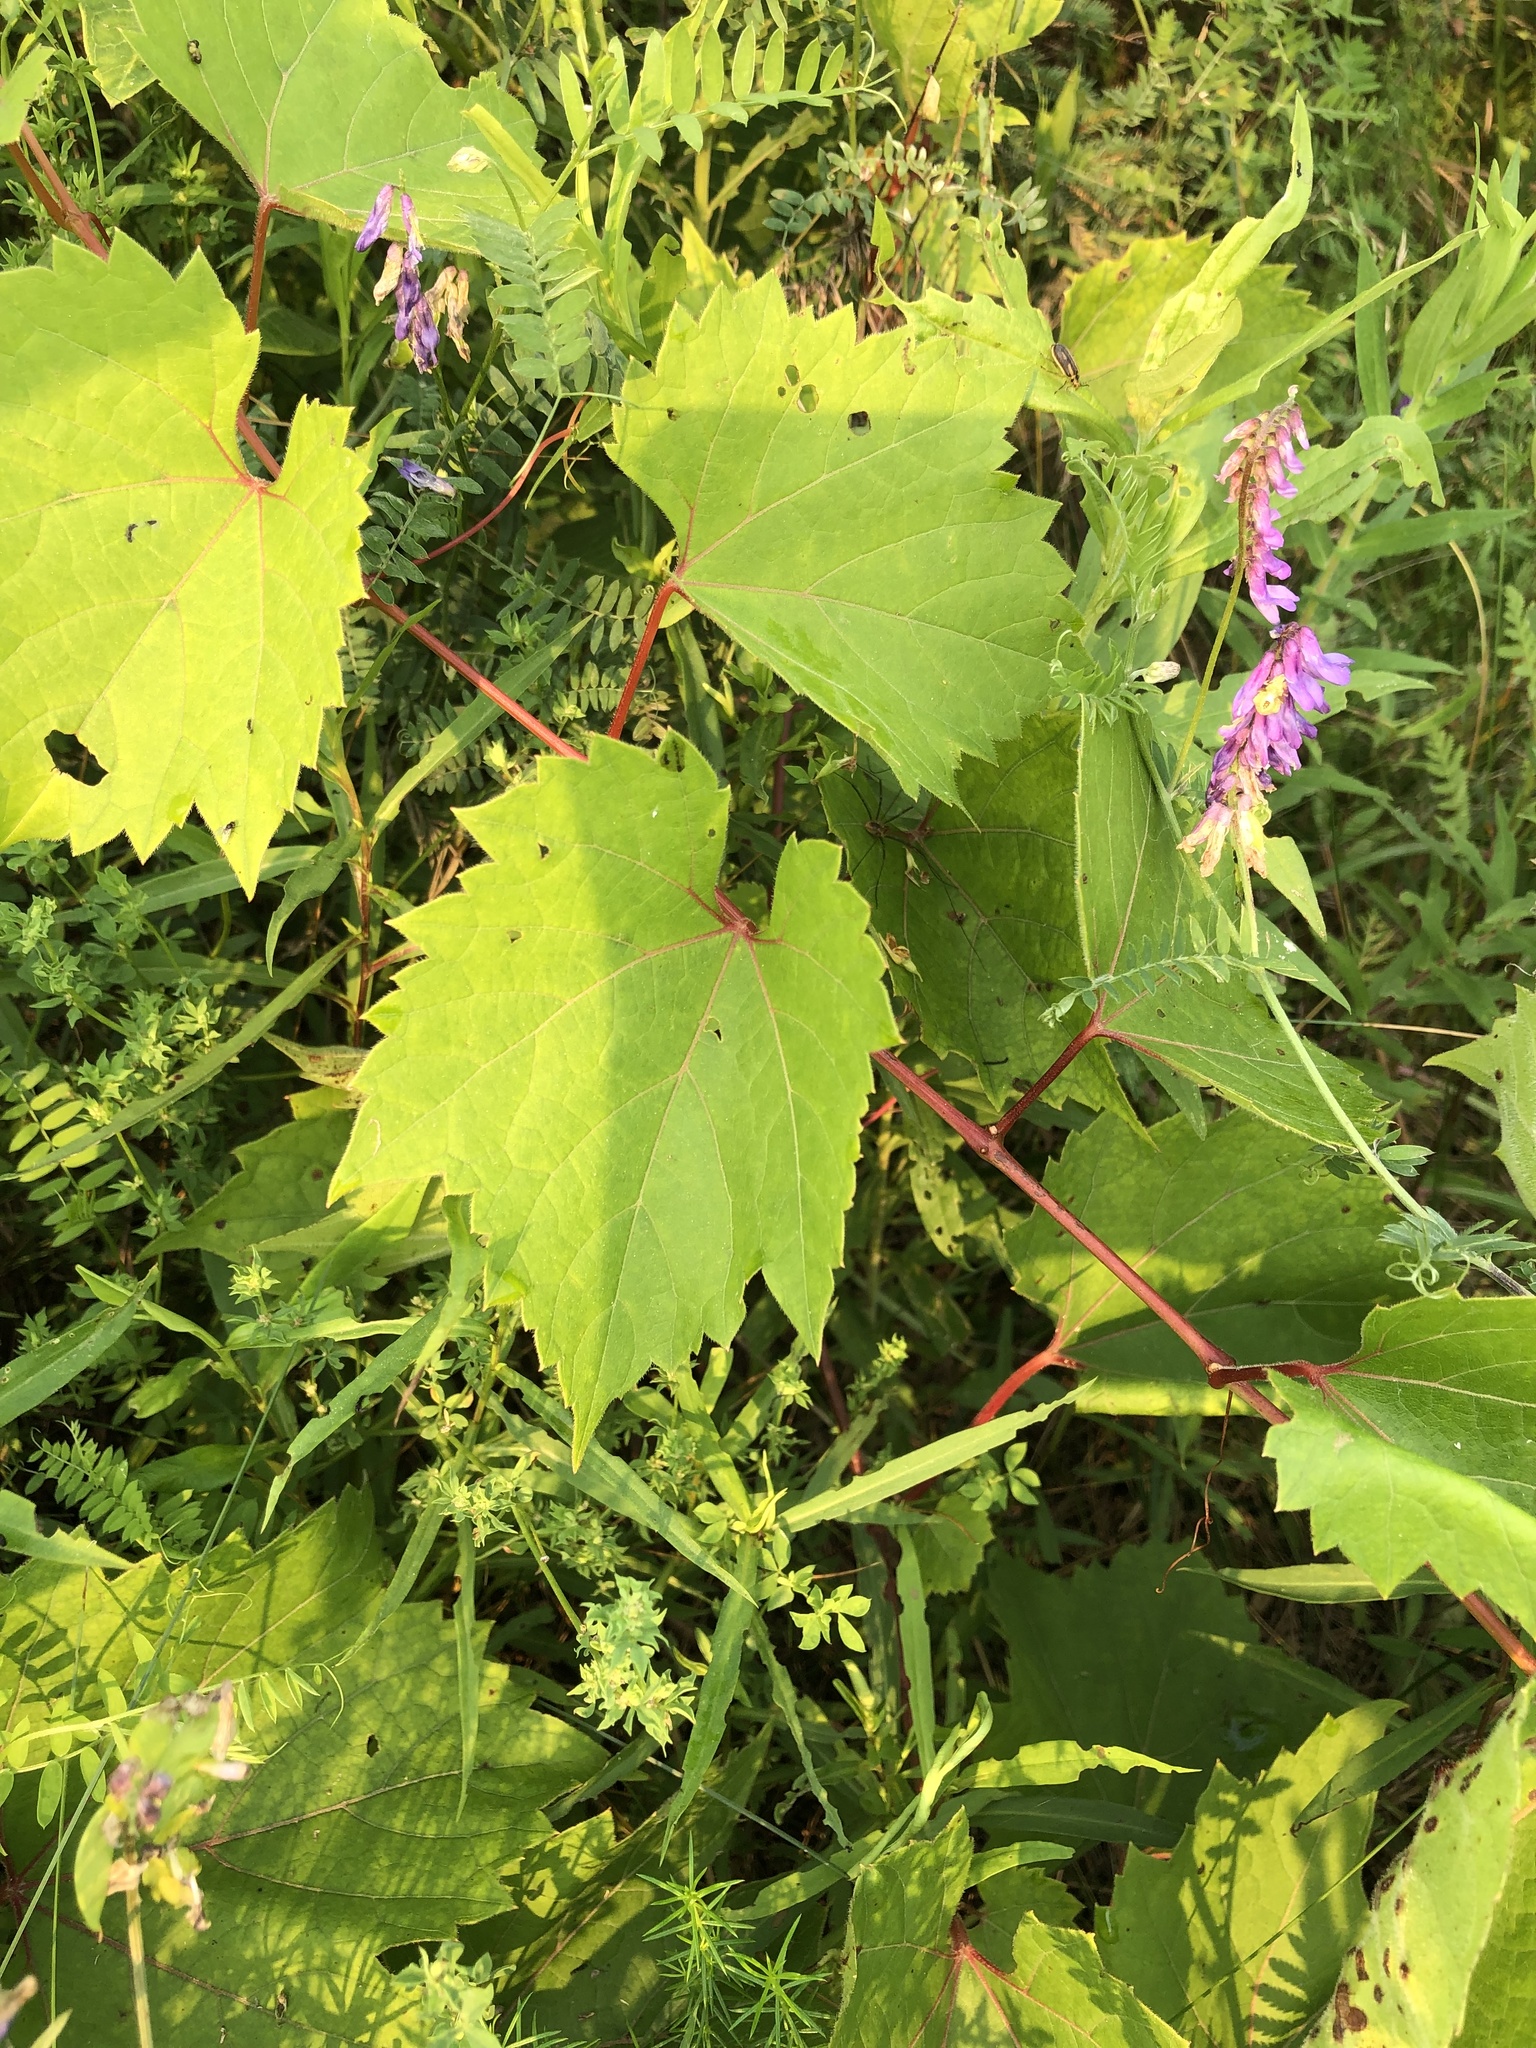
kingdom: Plantae
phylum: Tracheophyta
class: Magnoliopsida
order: Vitales
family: Vitaceae
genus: Vitis
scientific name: Vitis riparia
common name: Frost grape
